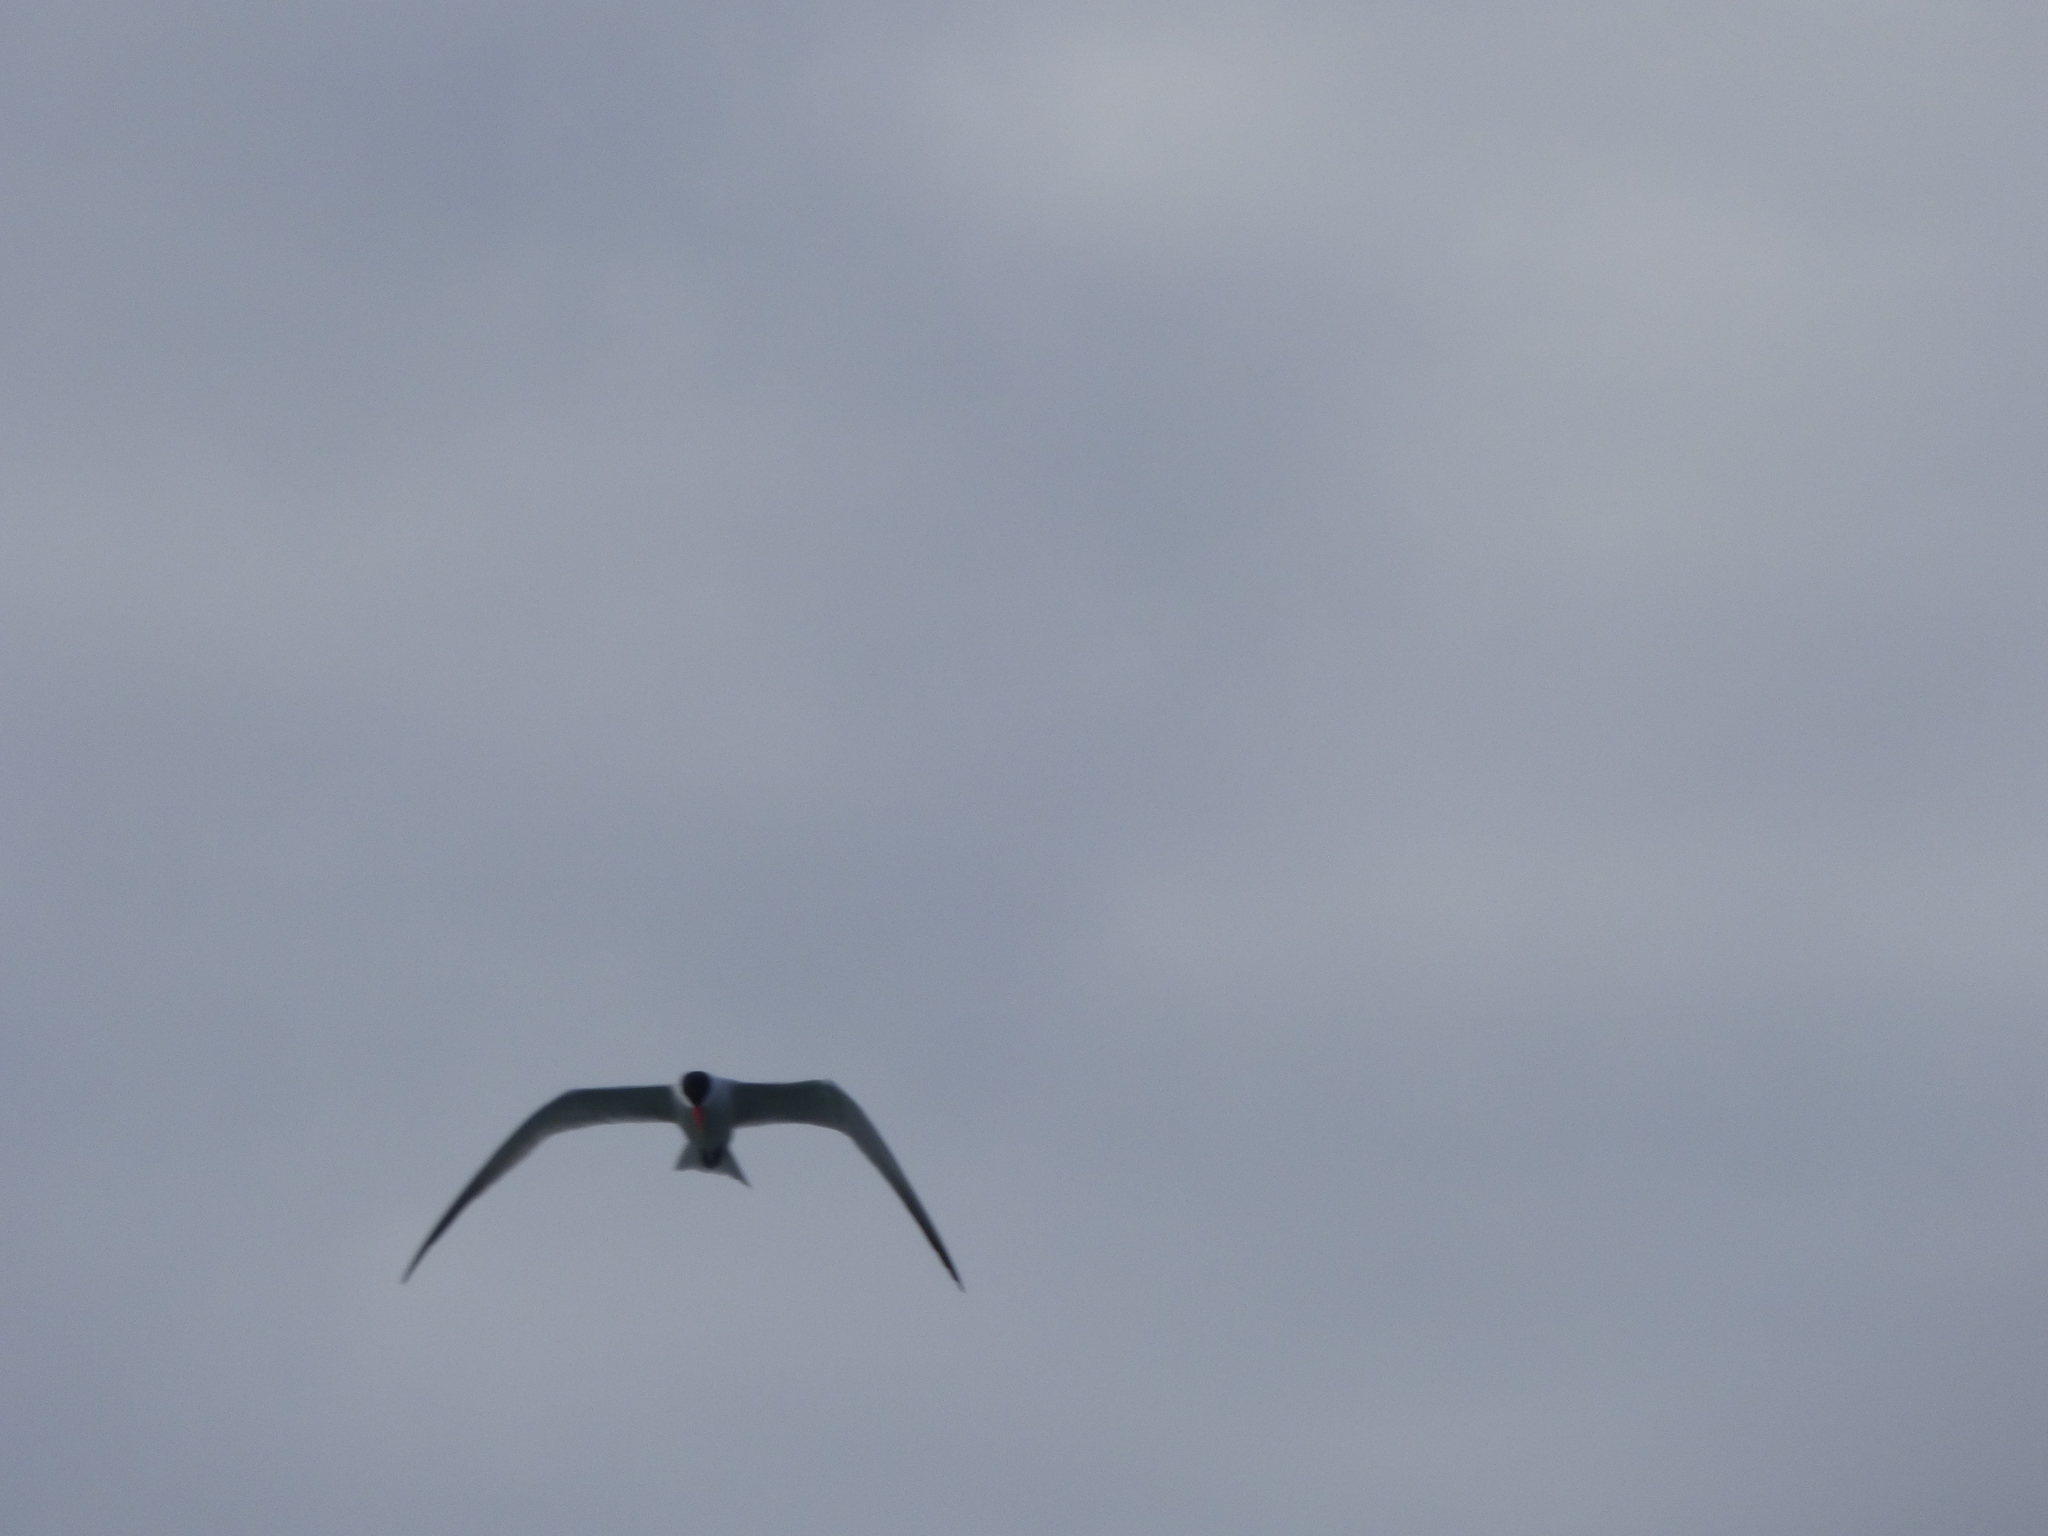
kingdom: Animalia
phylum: Chordata
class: Aves
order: Charadriiformes
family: Laridae
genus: Hydroprogne
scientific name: Hydroprogne caspia
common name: Caspian tern
